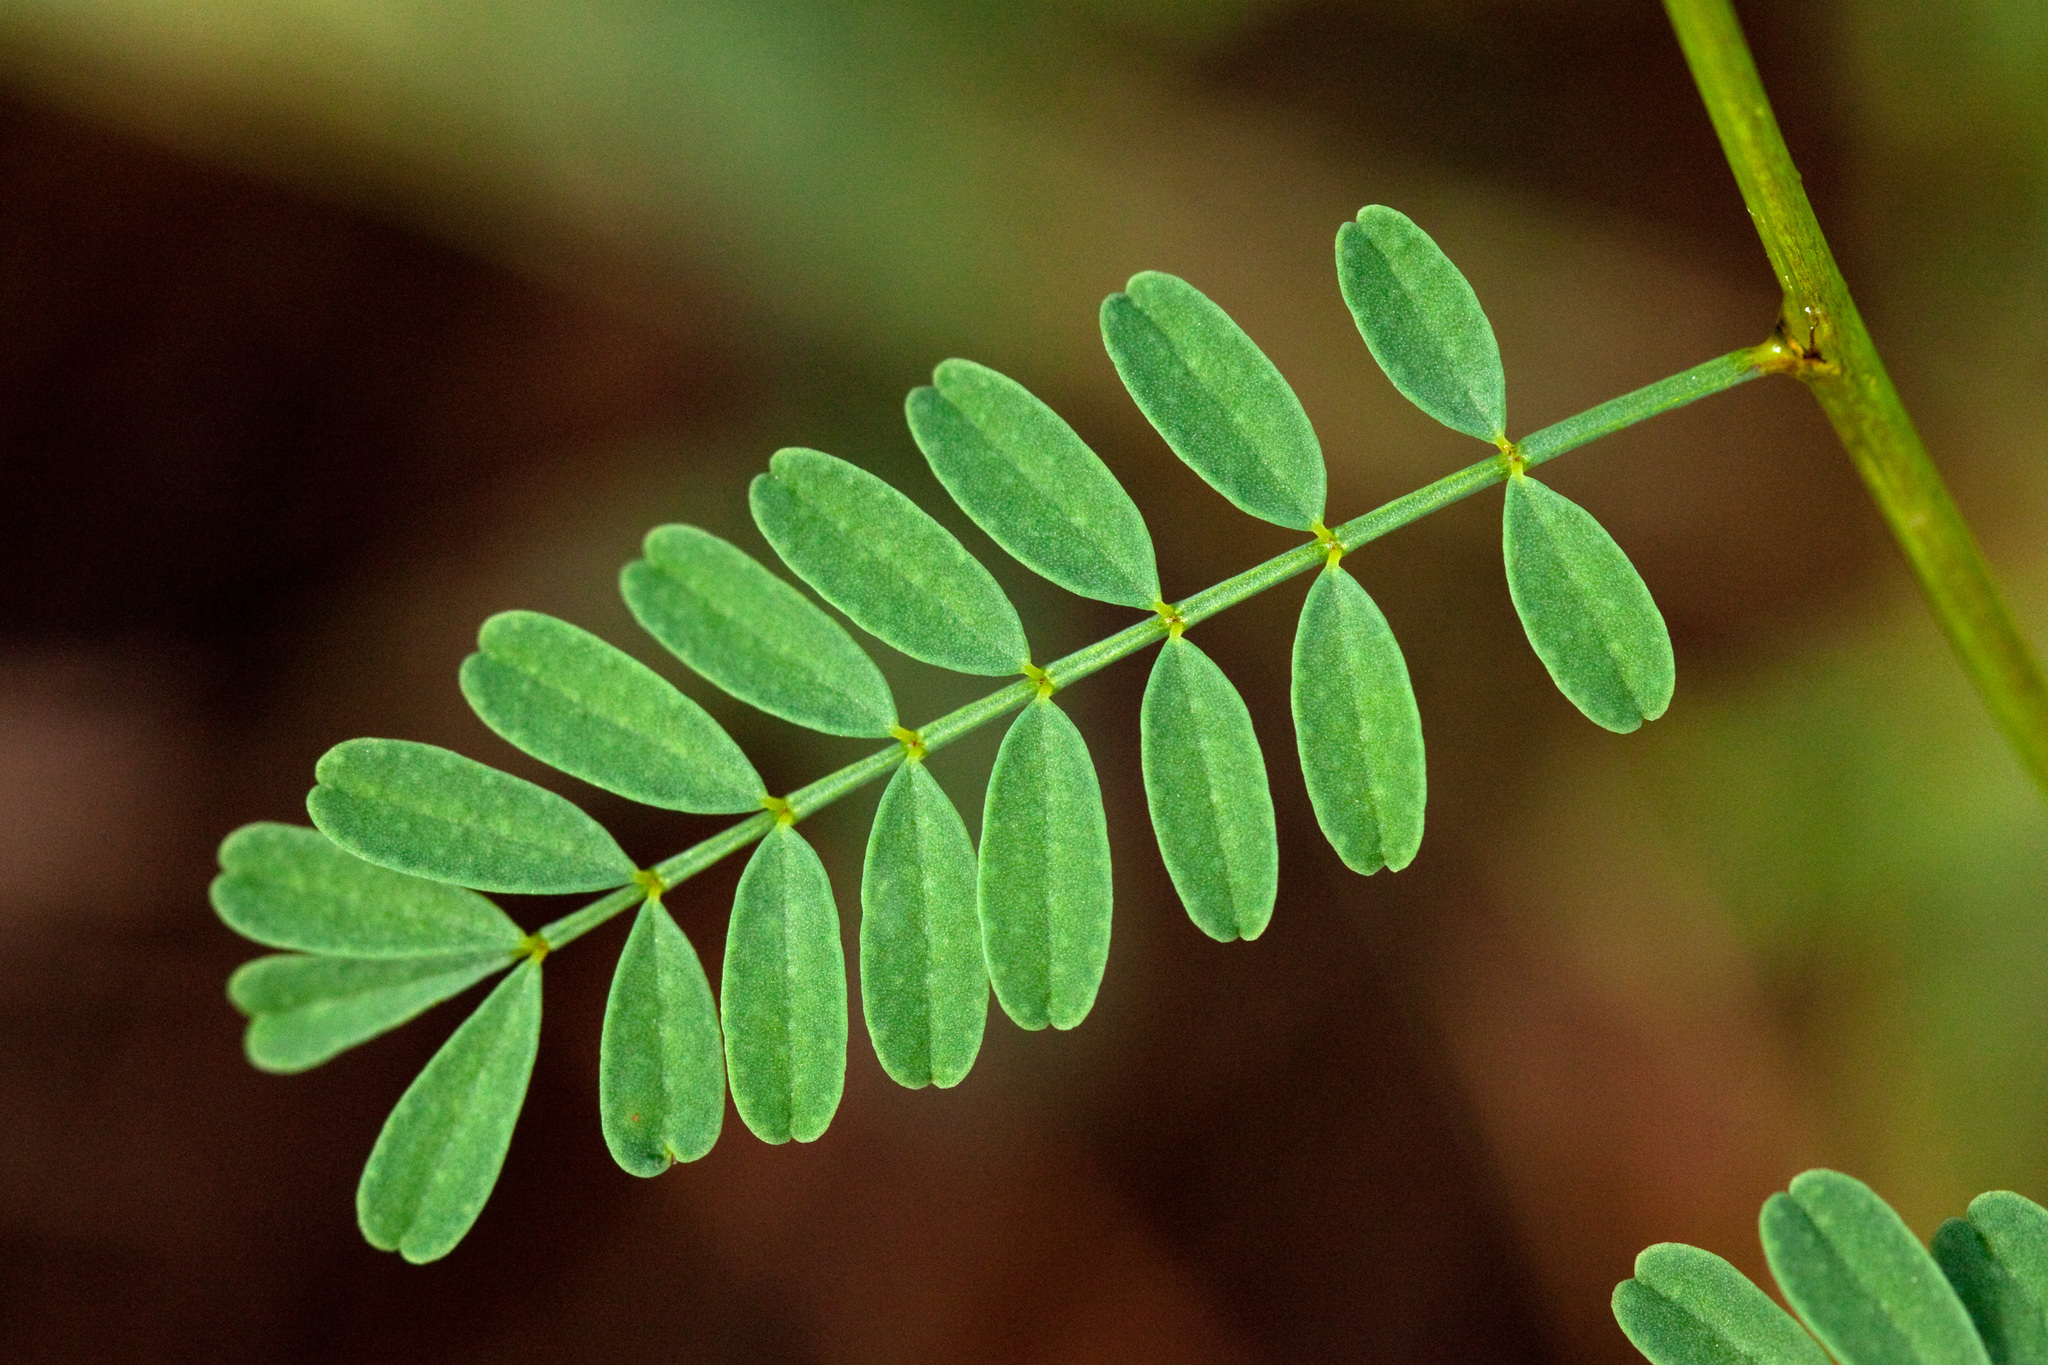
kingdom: Plantae
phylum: Tracheophyta
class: Magnoliopsida
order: Fabales
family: Fabaceae
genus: Dalea
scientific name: Dalea urceolata
